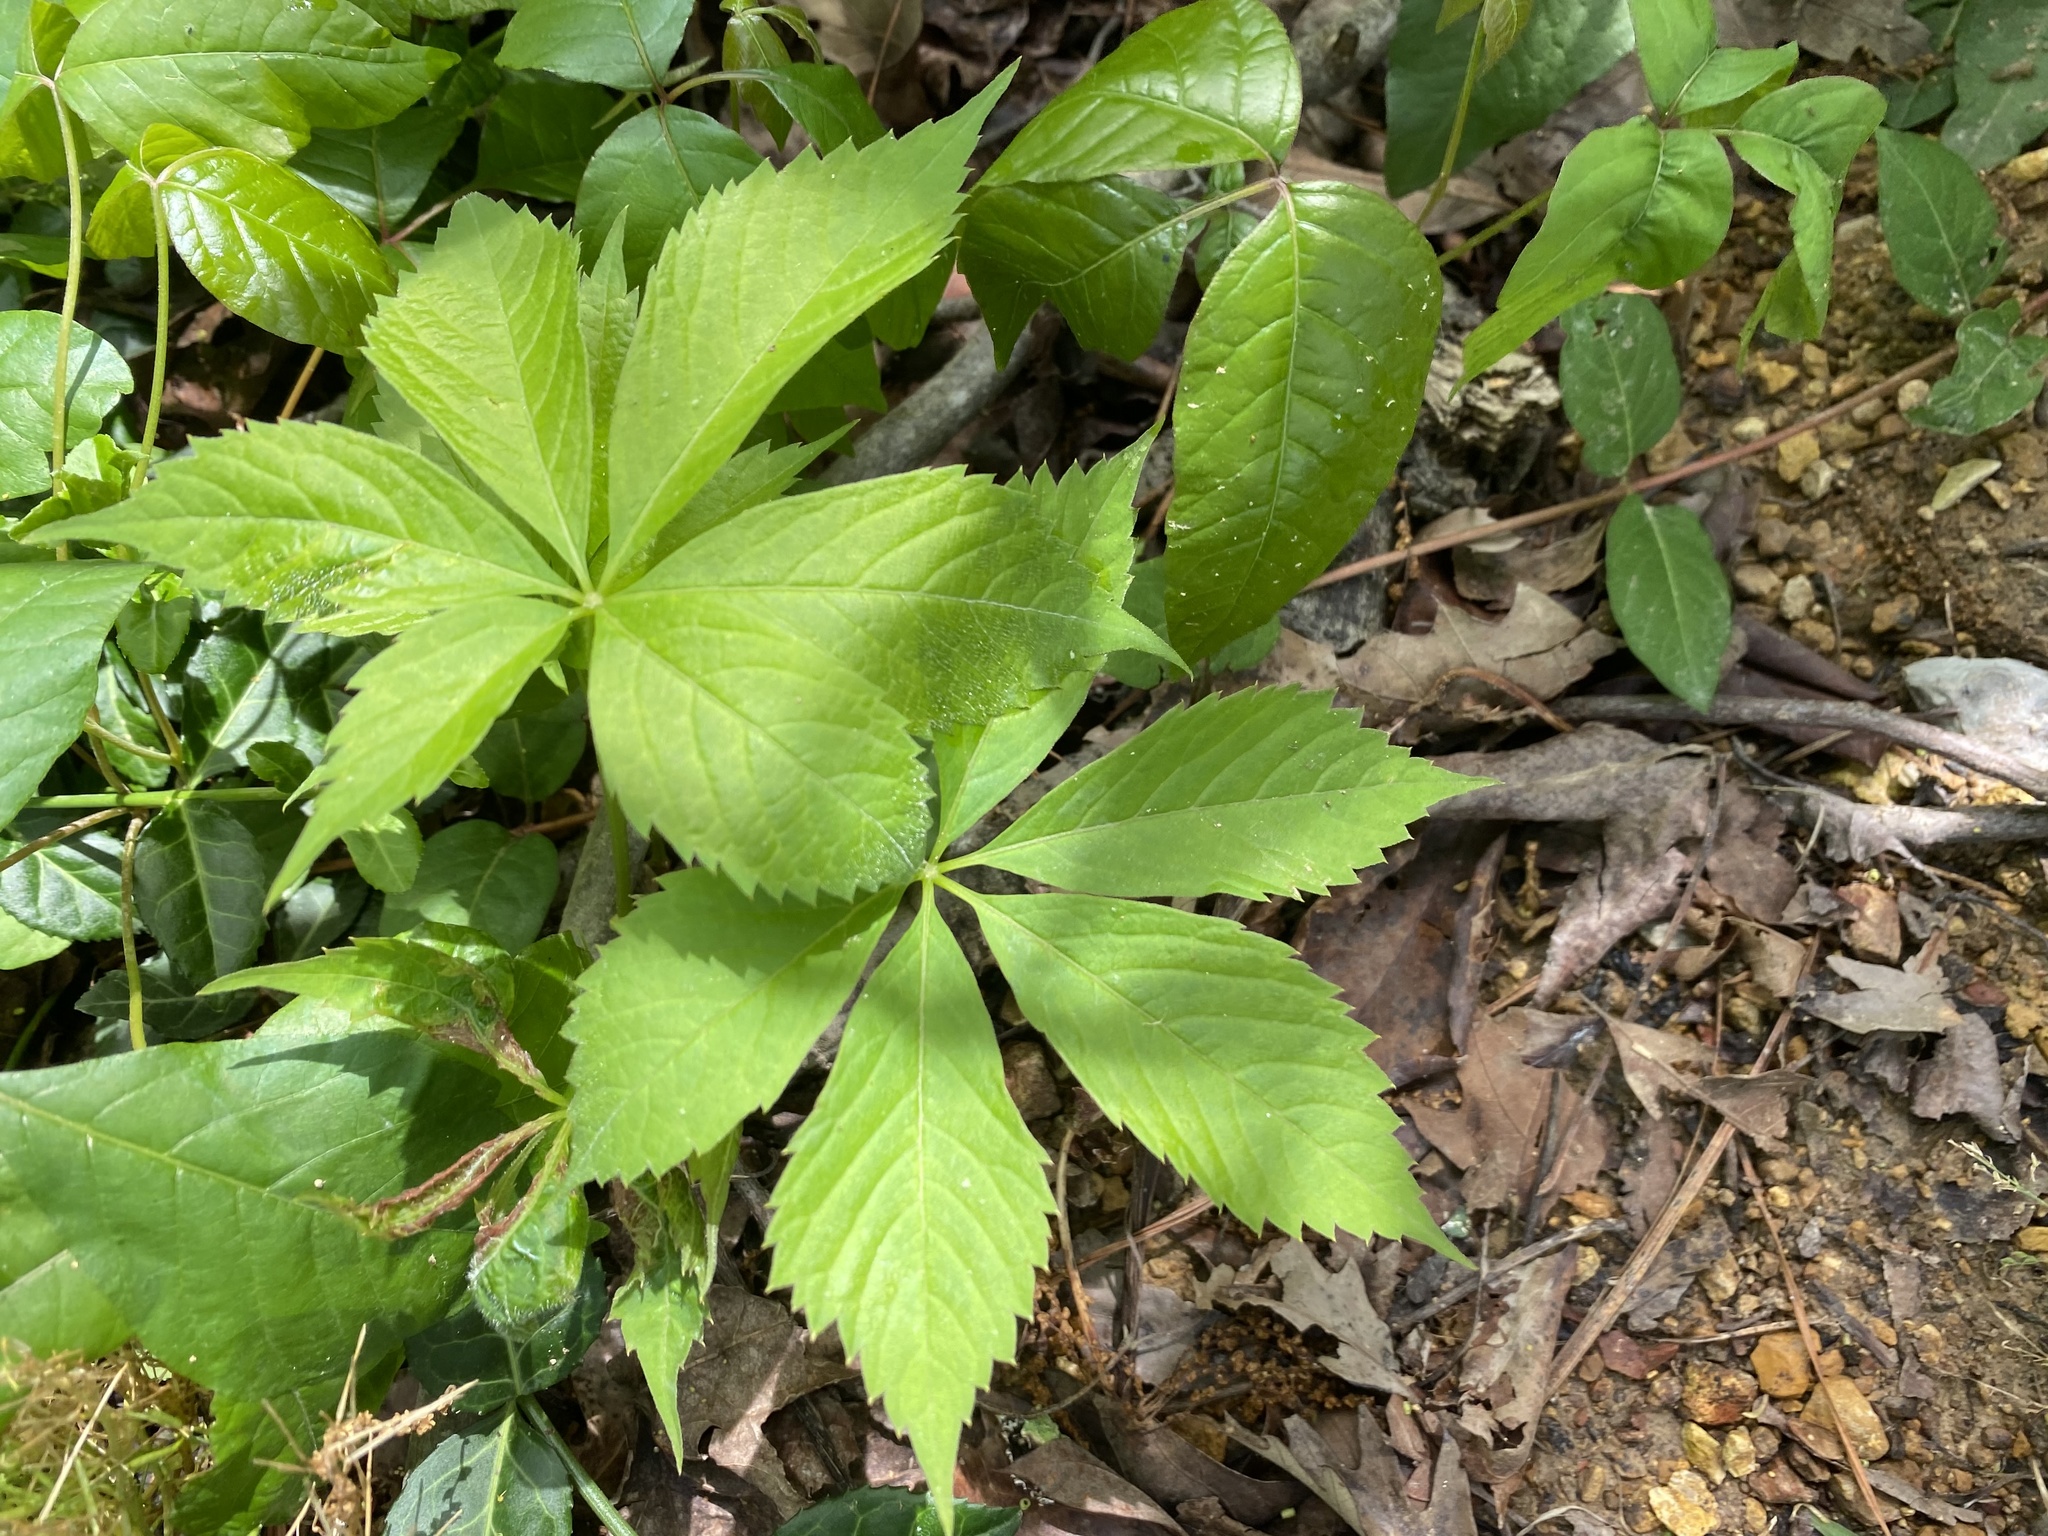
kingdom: Plantae
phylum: Tracheophyta
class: Magnoliopsida
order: Vitales
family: Vitaceae
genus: Parthenocissus
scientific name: Parthenocissus quinquefolia
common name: Virginia-creeper
